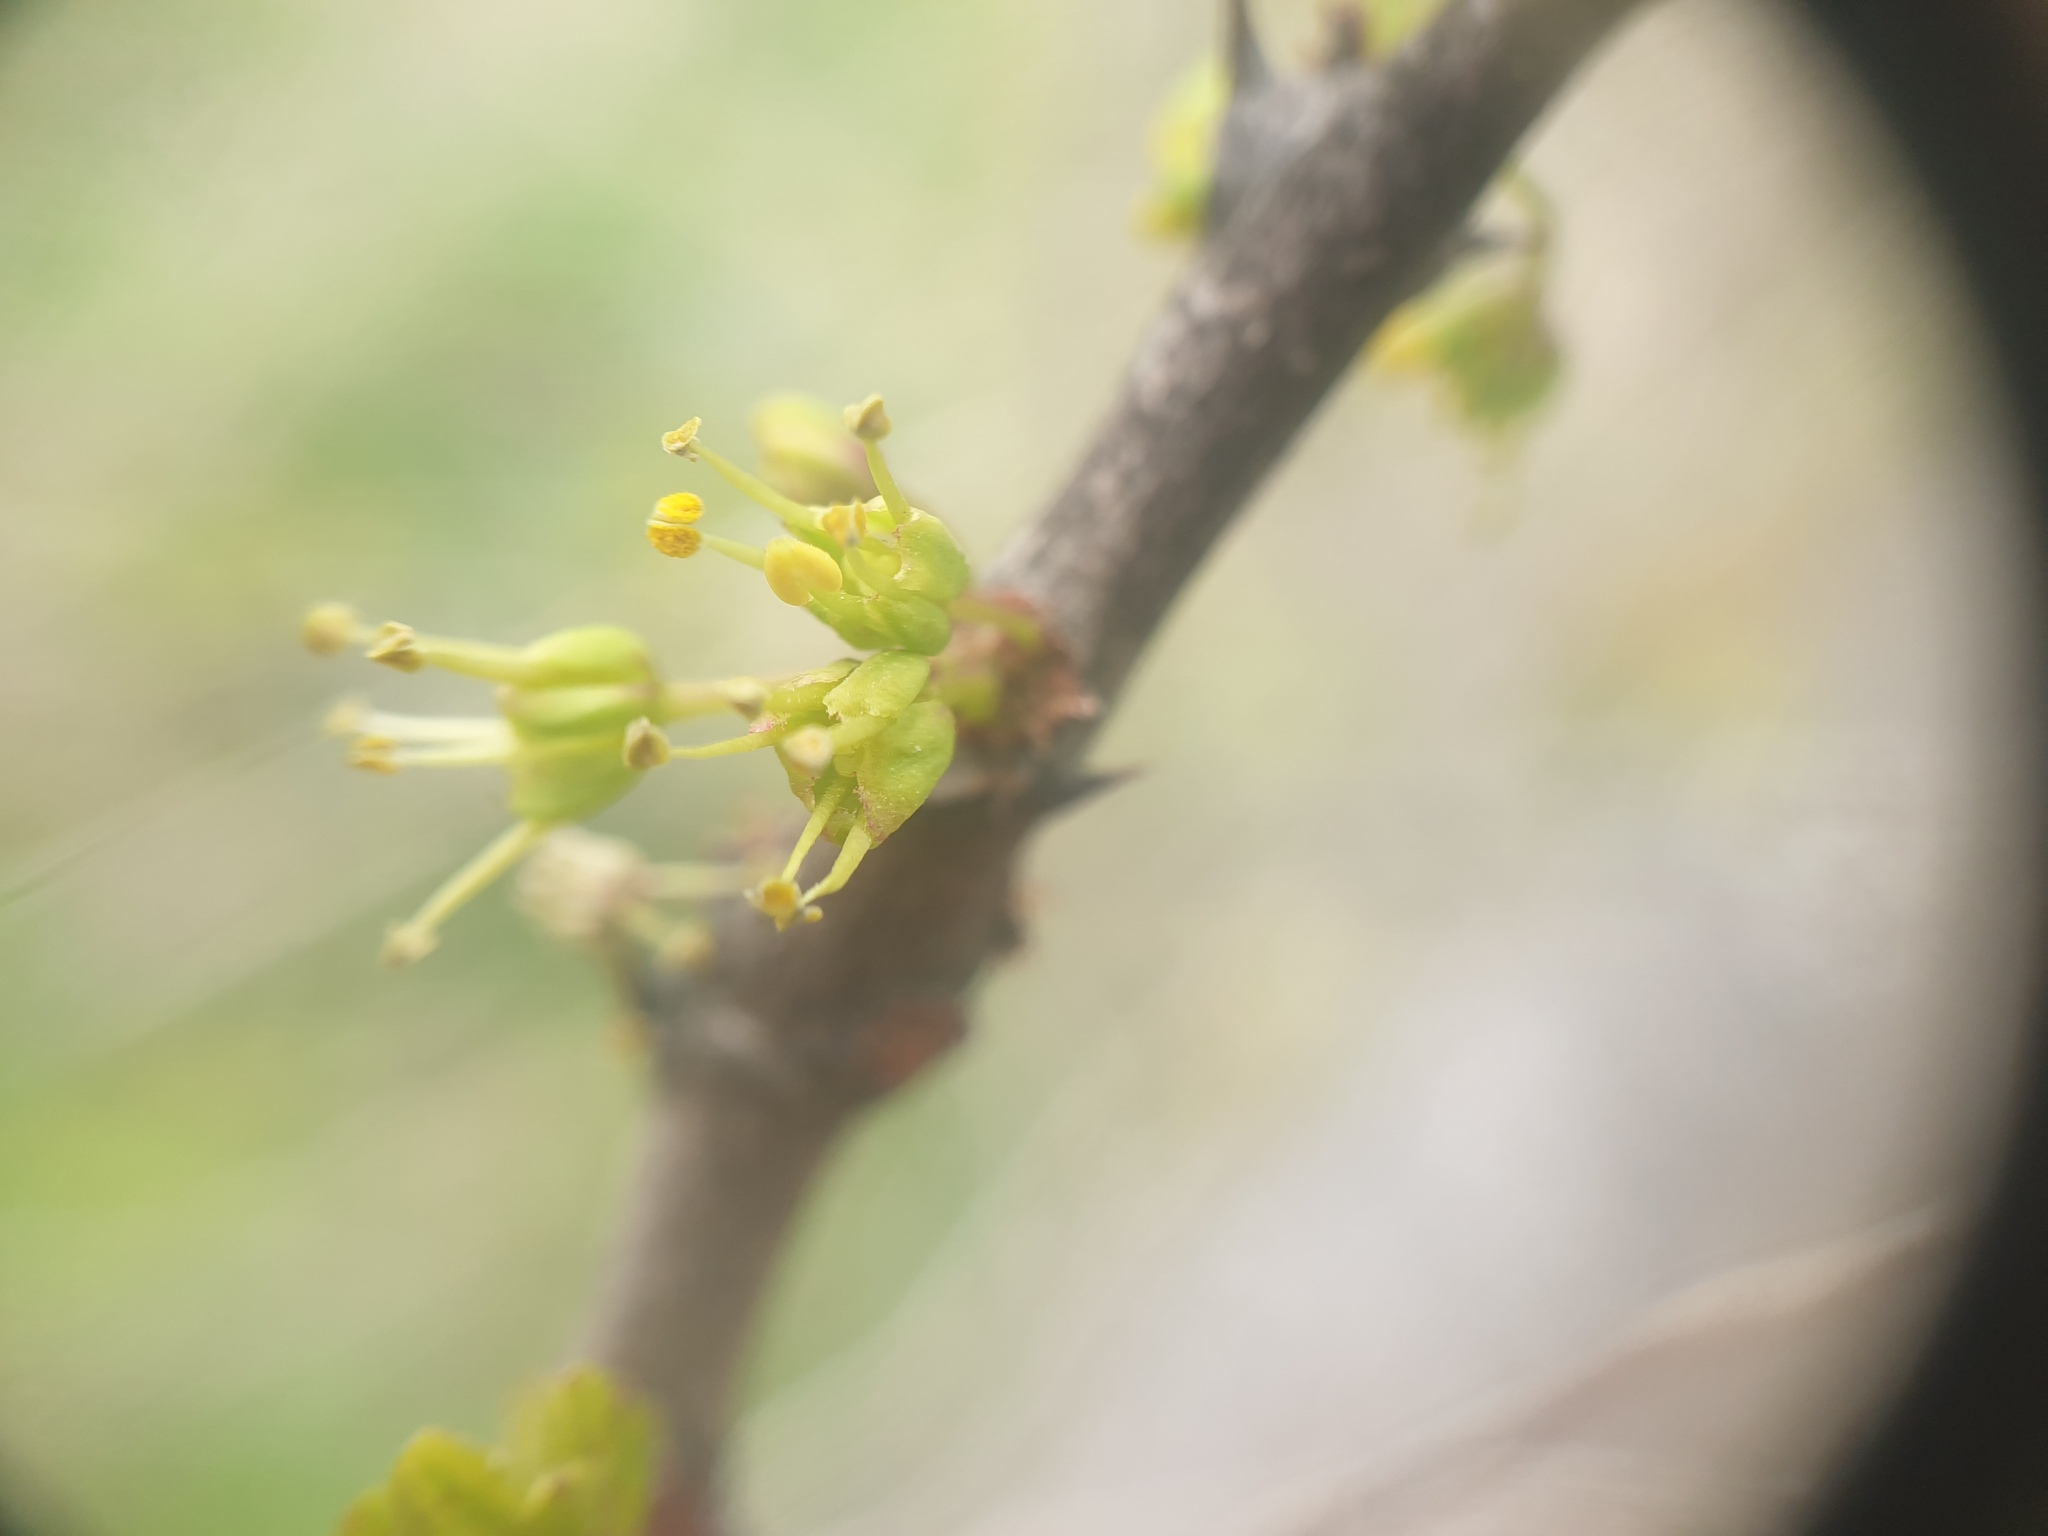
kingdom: Plantae
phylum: Tracheophyta
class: Magnoliopsida
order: Sapindales
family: Rutaceae
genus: Zanthoxylum
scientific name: Zanthoxylum americanum
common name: Northern prickly-ash
